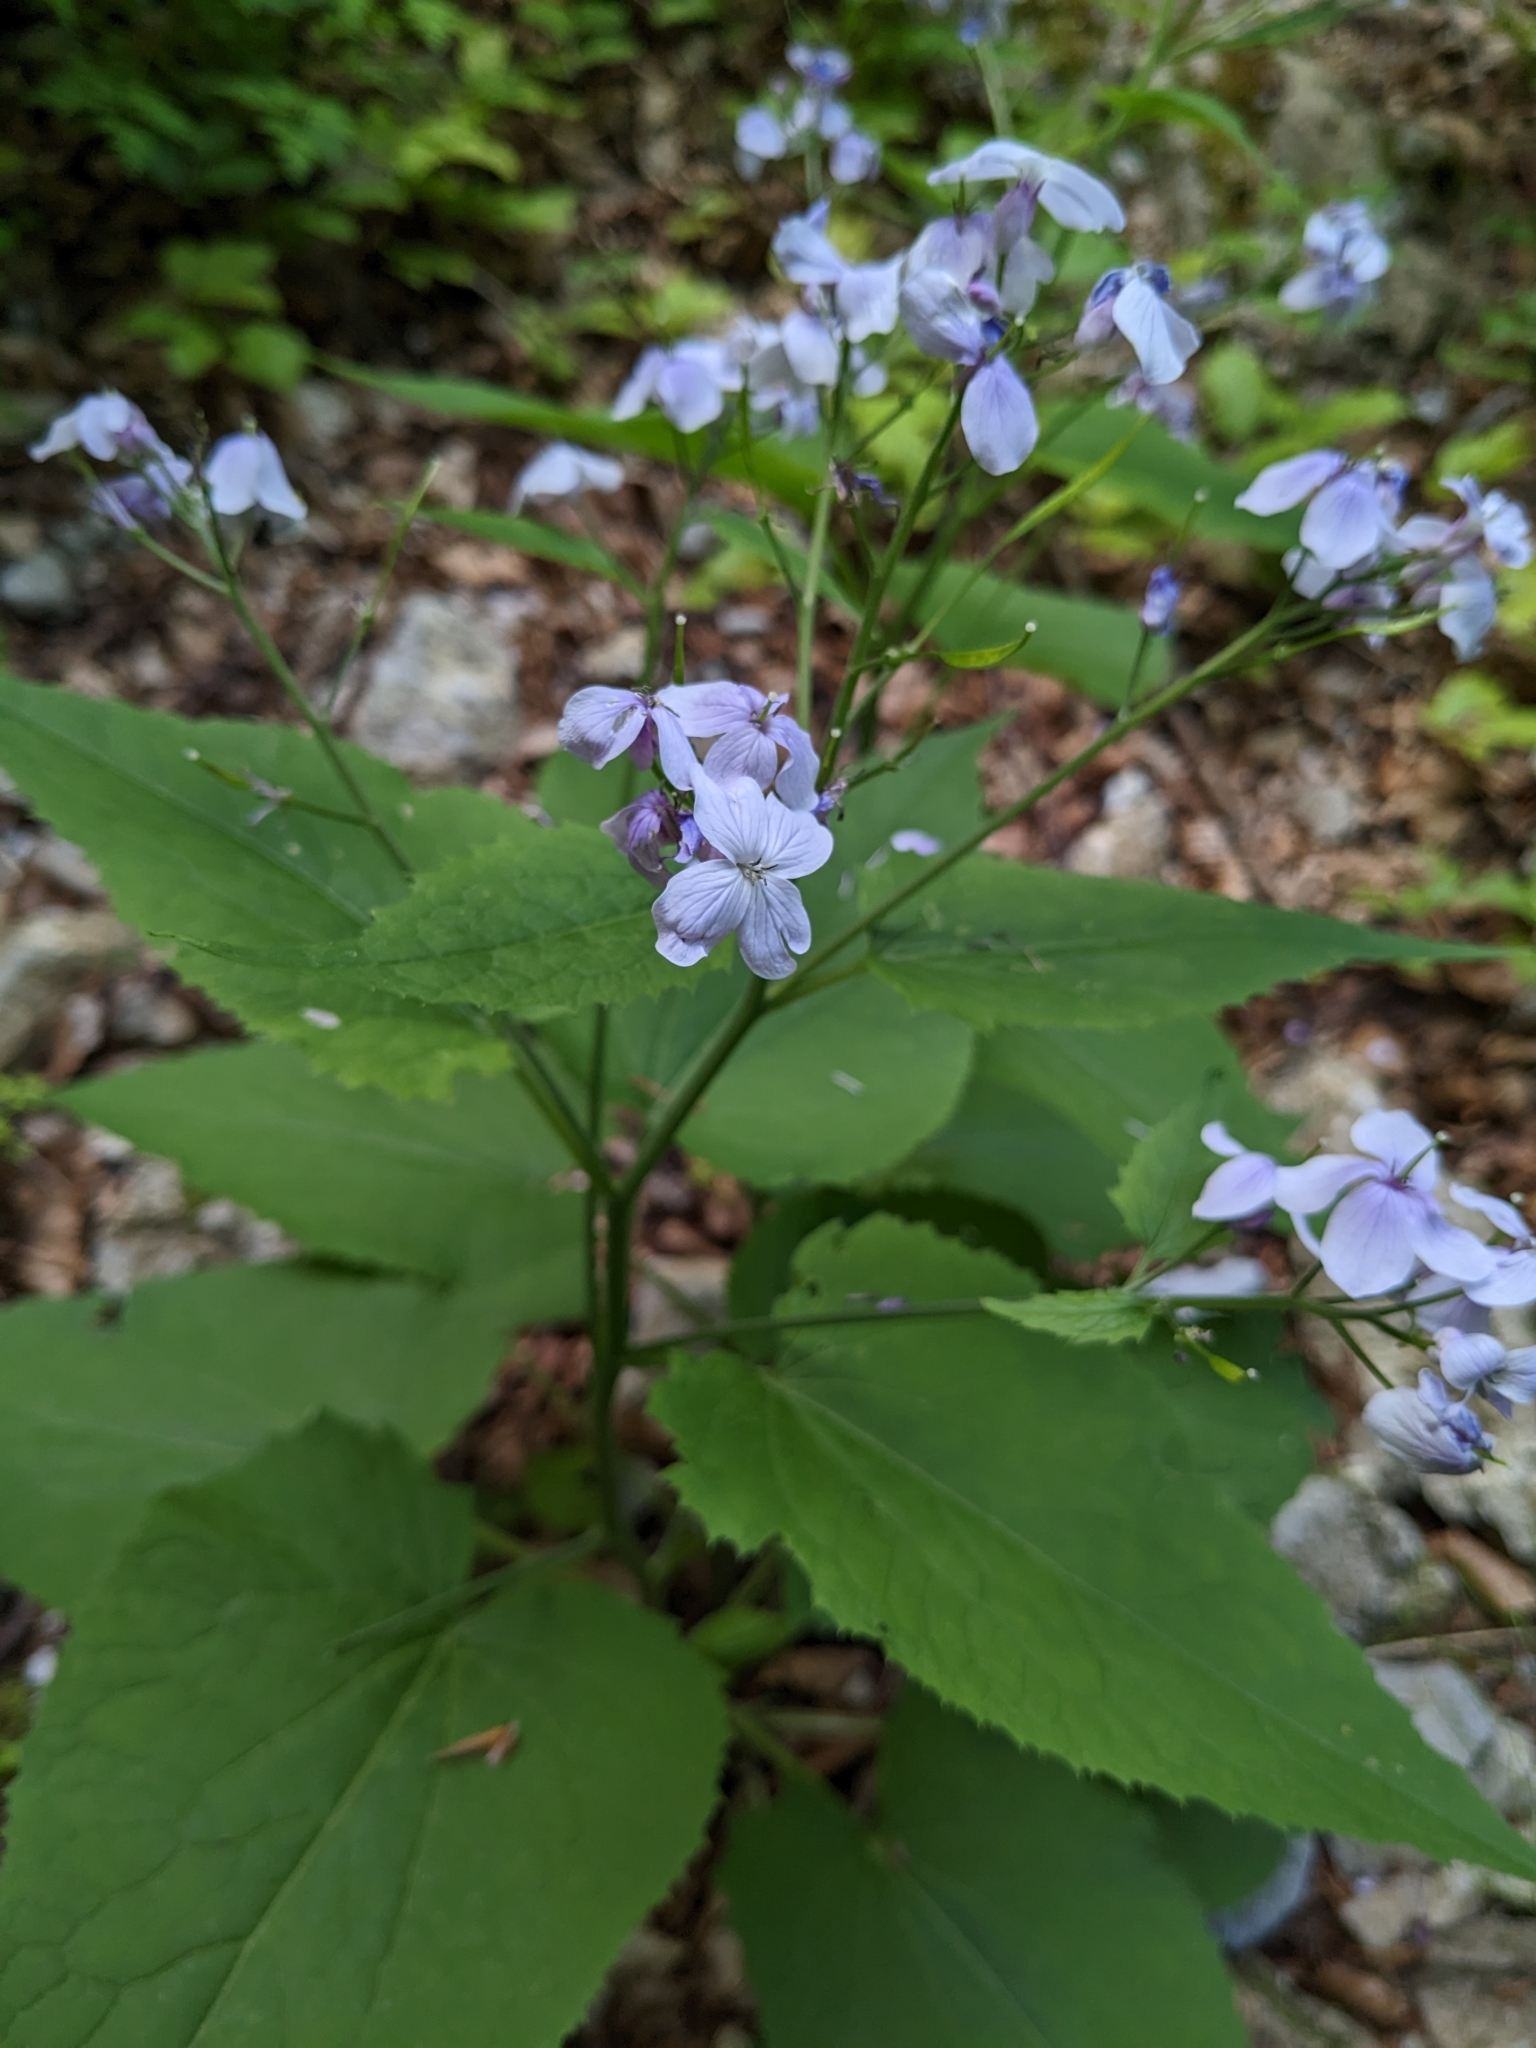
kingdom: Plantae
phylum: Tracheophyta
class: Magnoliopsida
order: Brassicales
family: Brassicaceae
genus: Lunaria
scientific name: Lunaria rediviva
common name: Perennial honesty
